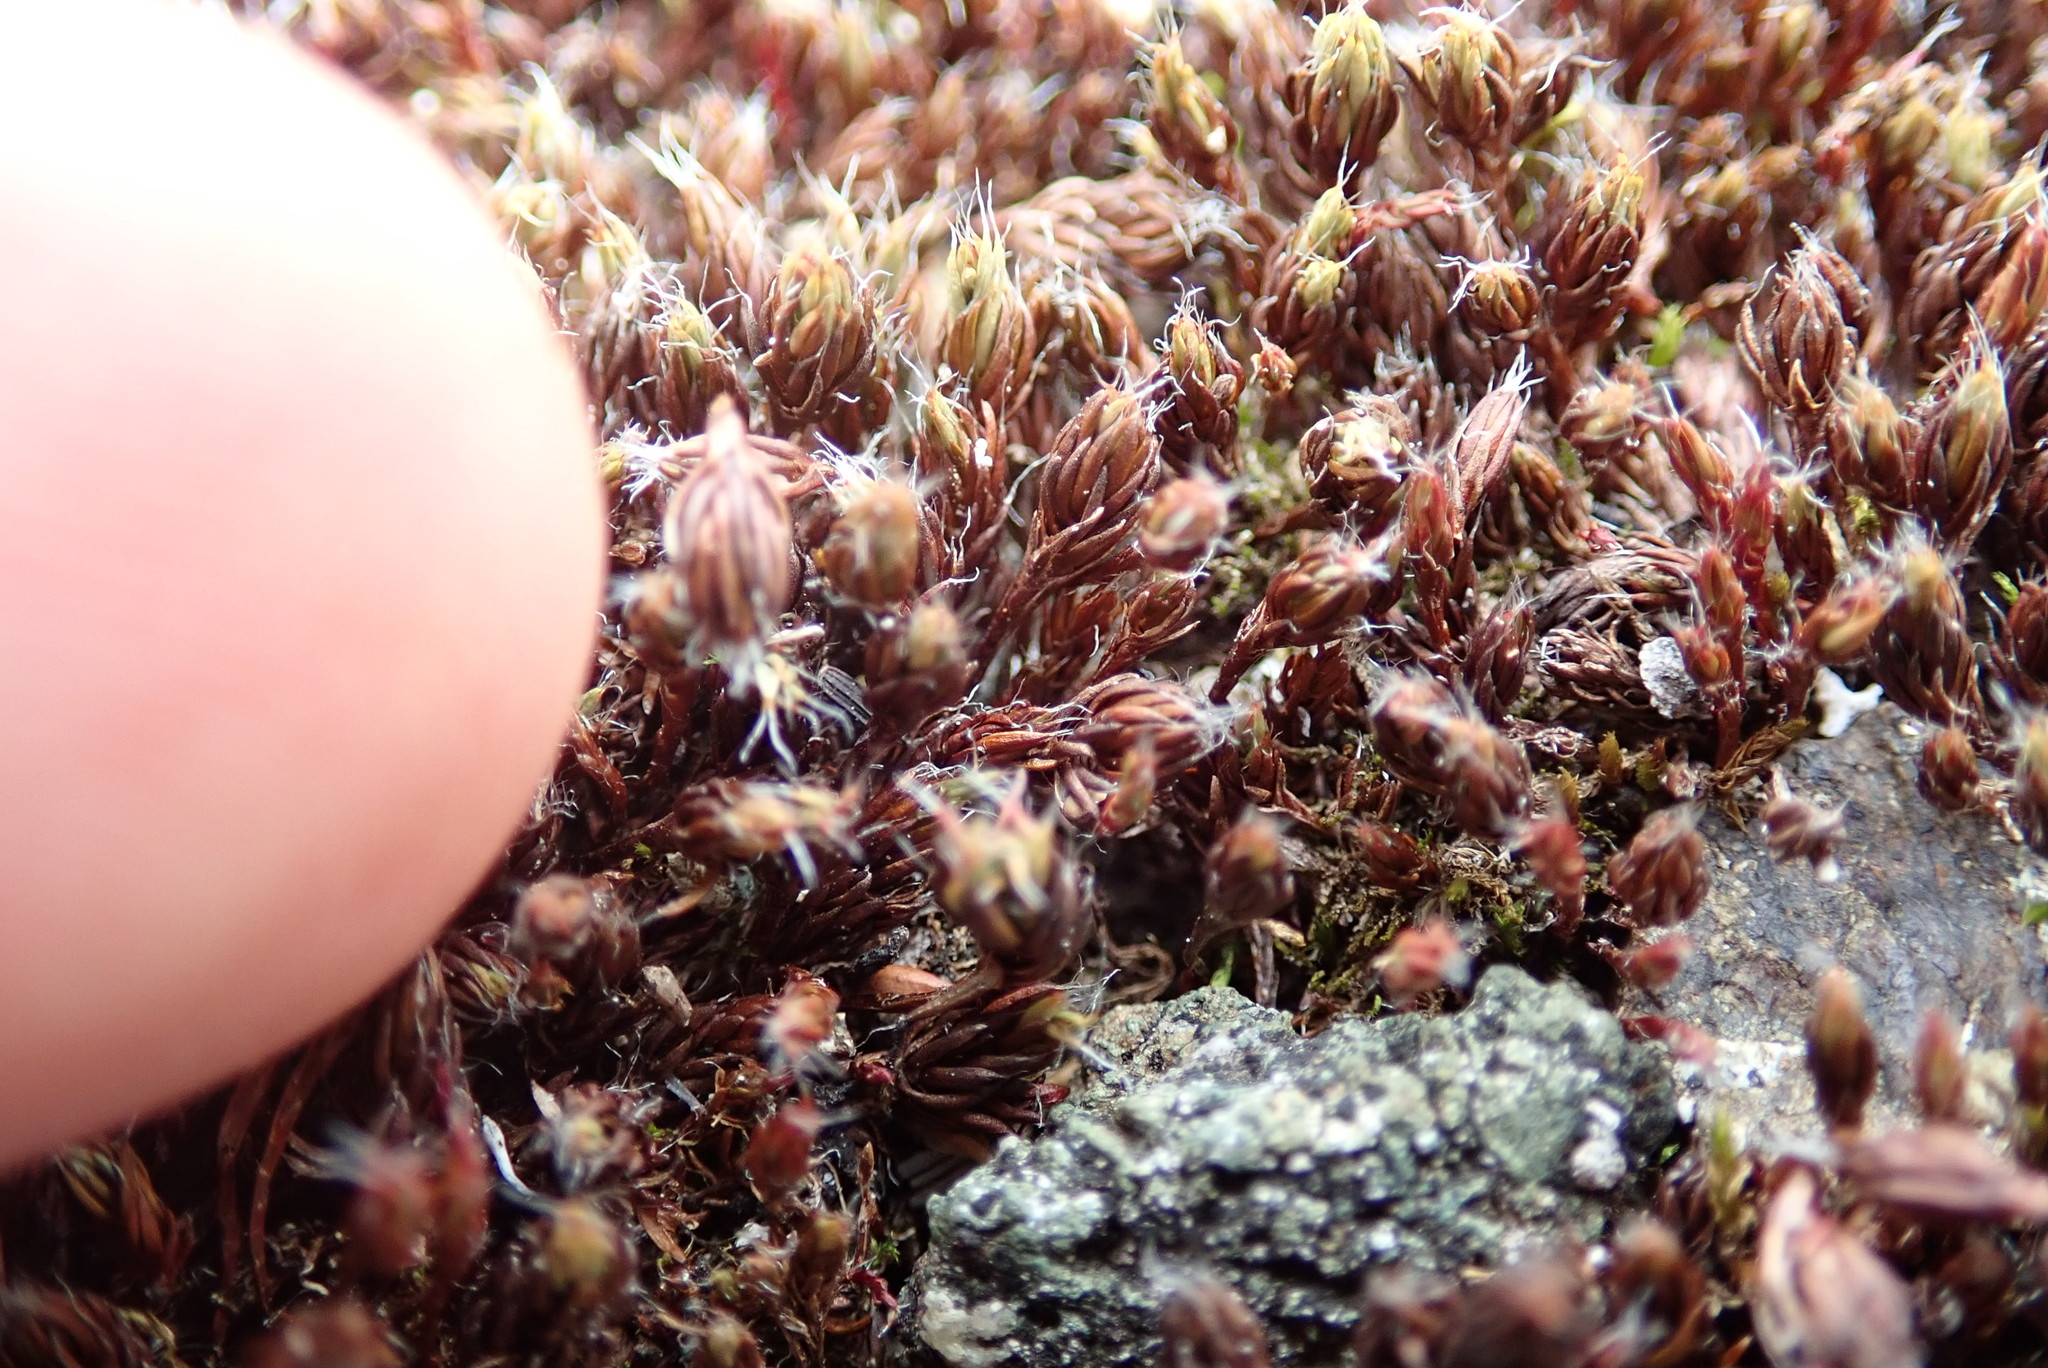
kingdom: Plantae
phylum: Bryophyta
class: Polytrichopsida
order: Polytrichales
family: Polytrichaceae
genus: Polytrichum
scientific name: Polytrichum piliferum
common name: Bristly haircap
